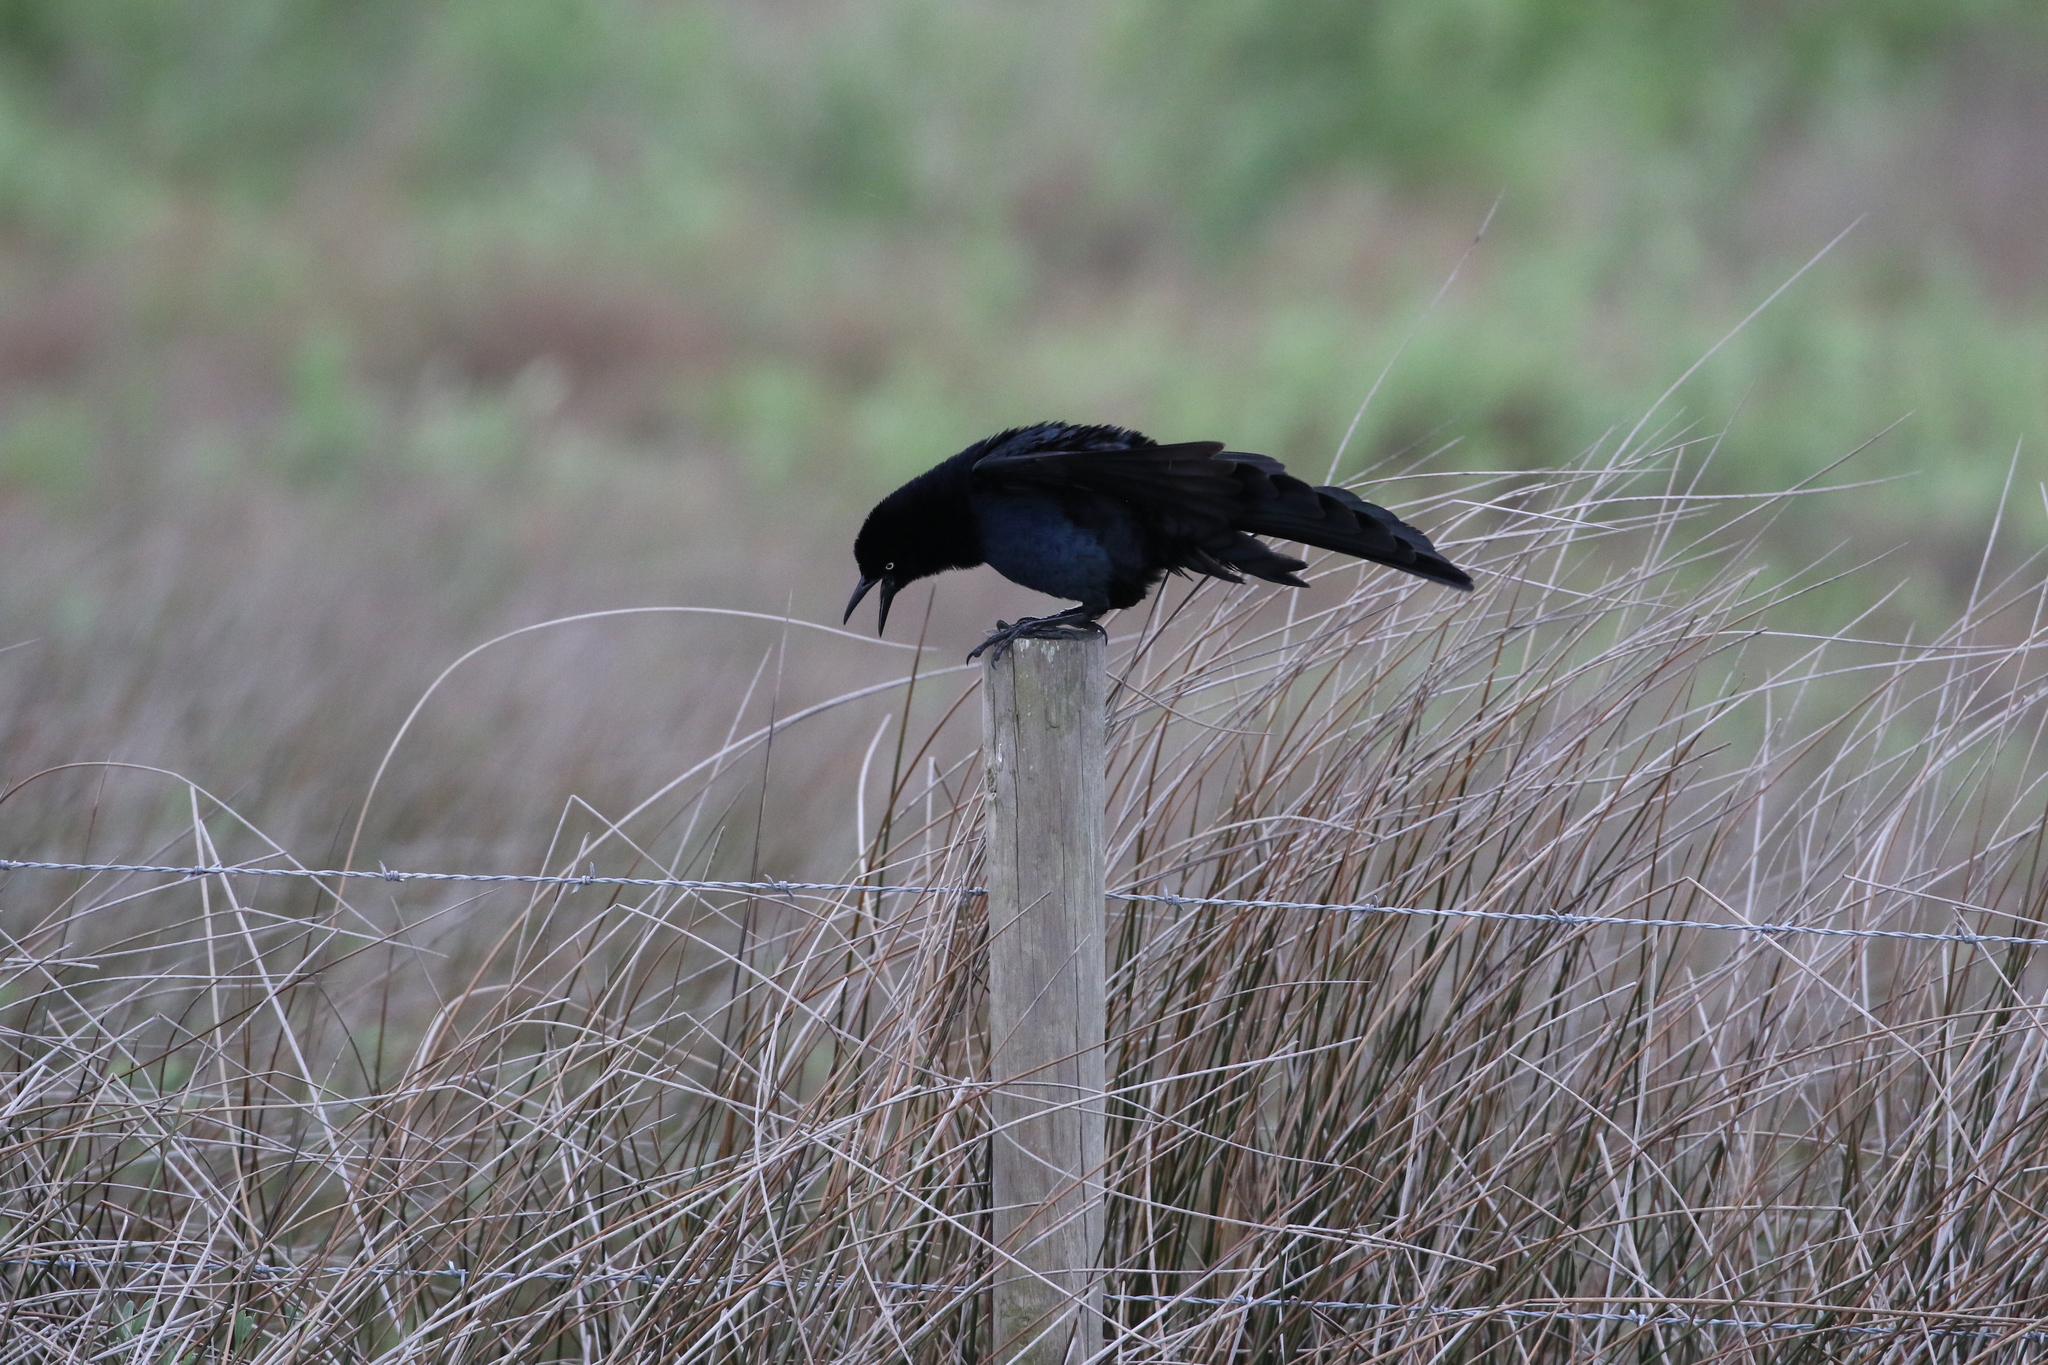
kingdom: Animalia
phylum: Chordata
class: Aves
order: Passeriformes
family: Icteridae
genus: Quiscalus
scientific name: Quiscalus mexicanus
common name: Great-tailed grackle
